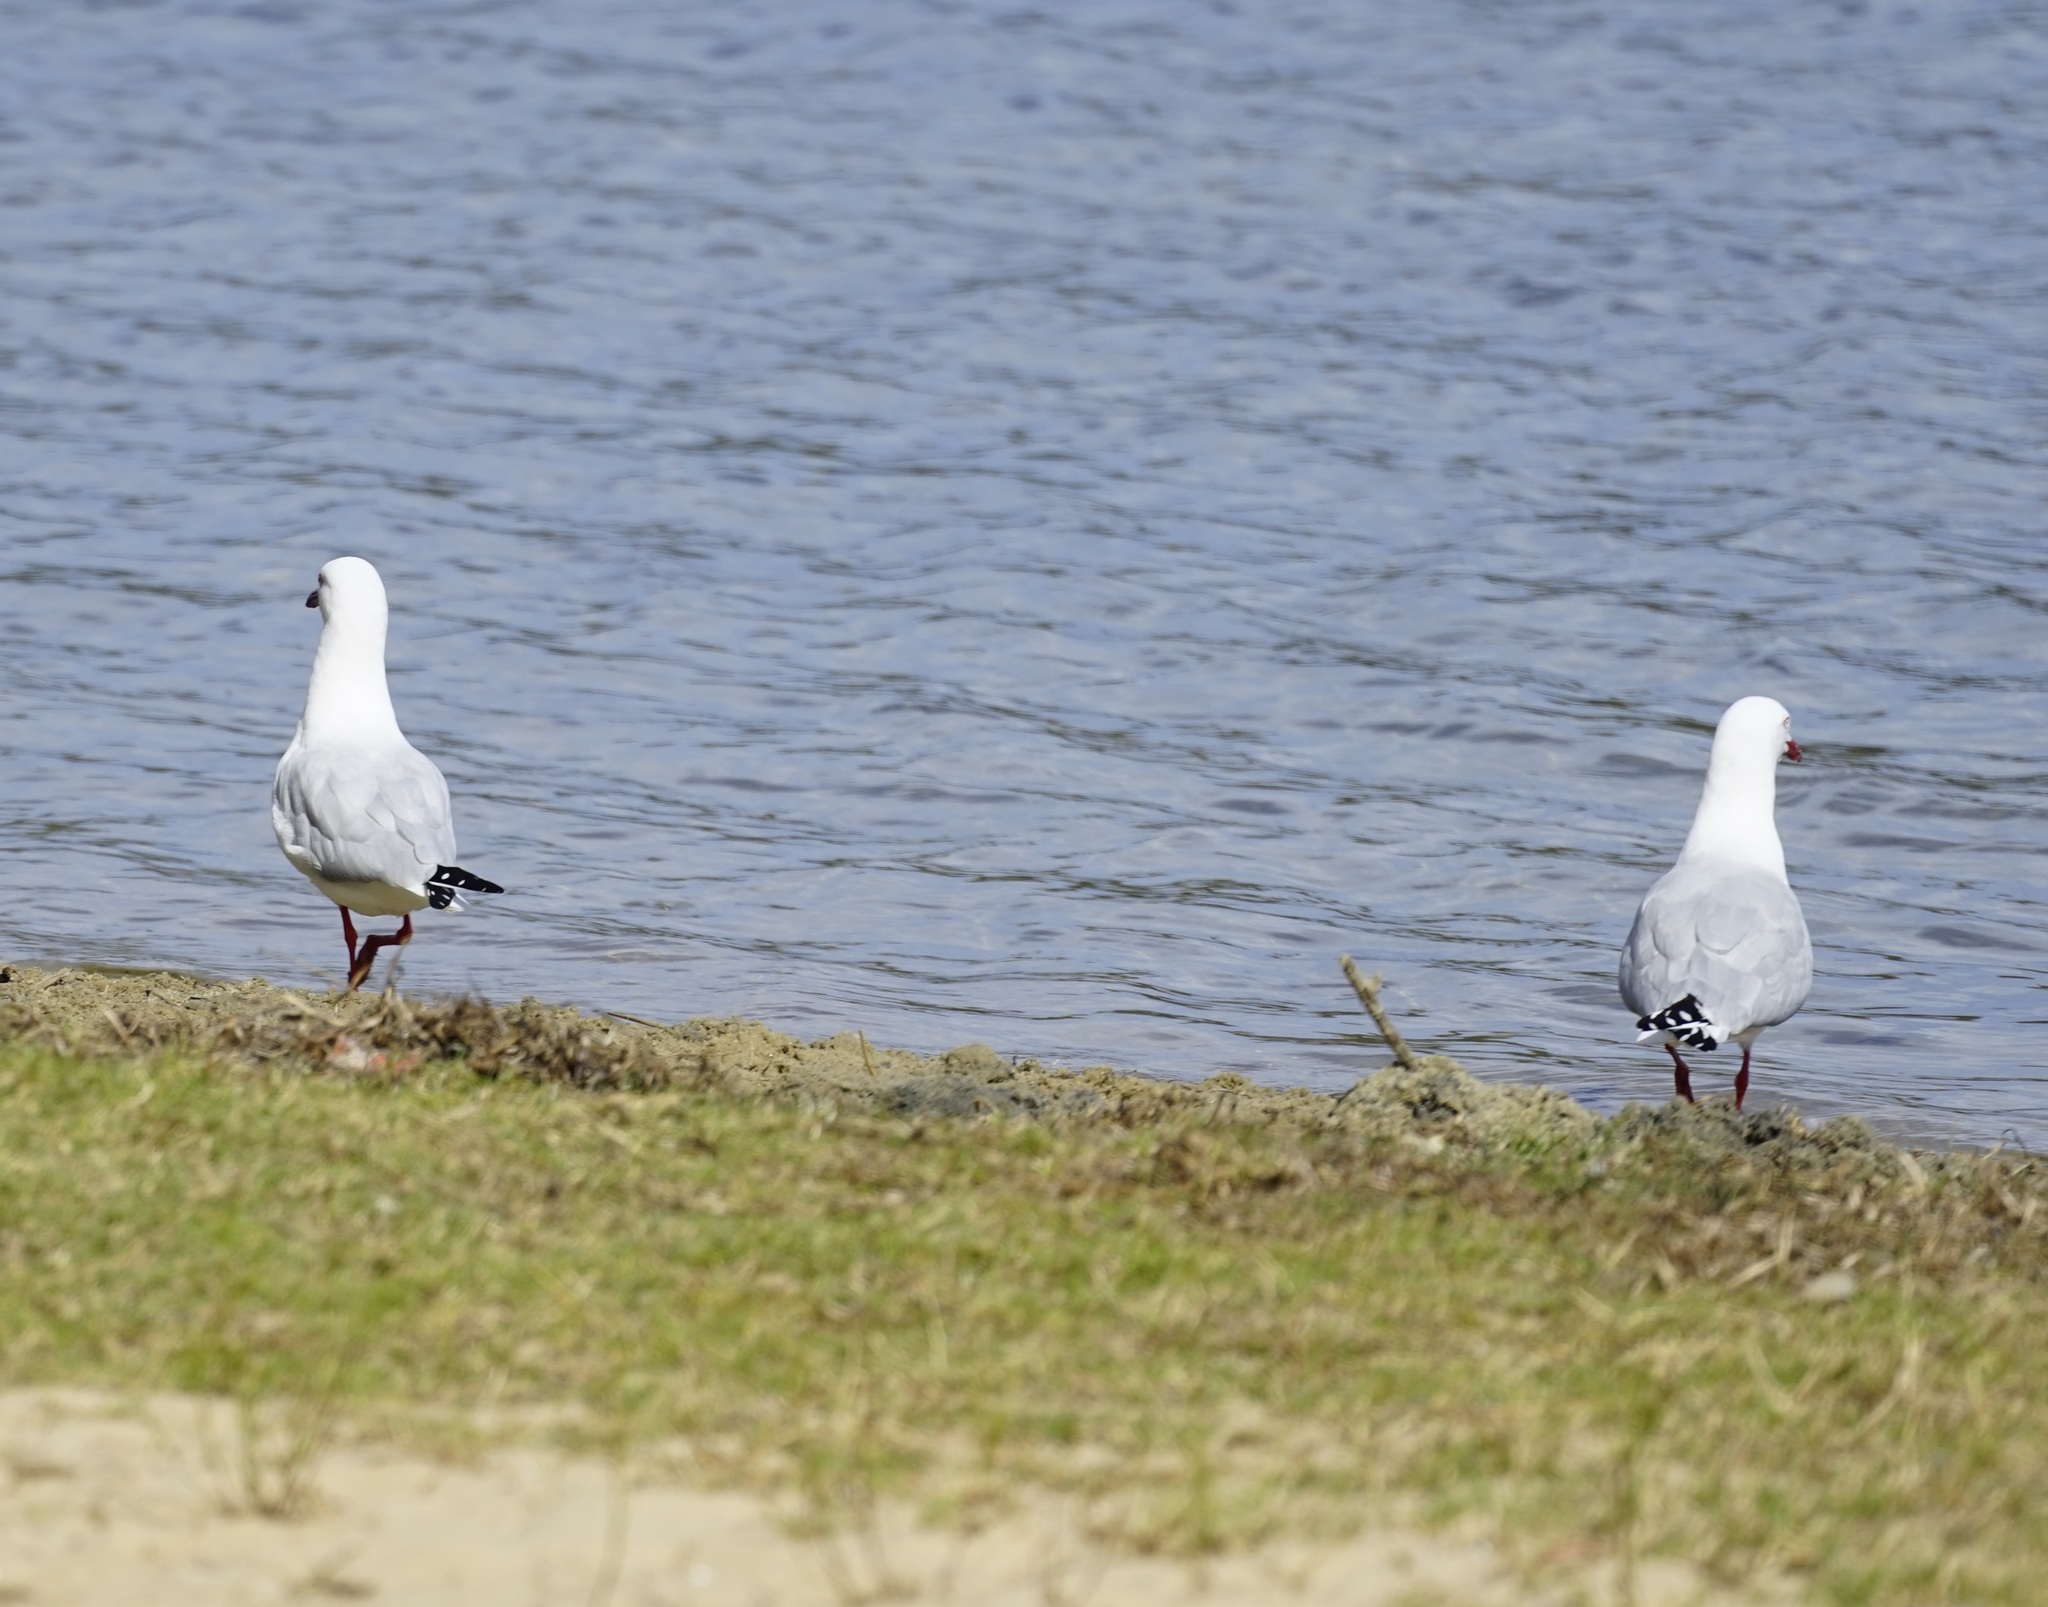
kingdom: Animalia
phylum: Chordata
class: Aves
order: Charadriiformes
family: Laridae
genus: Chroicocephalus
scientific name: Chroicocephalus novaehollandiae
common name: Silver gull
